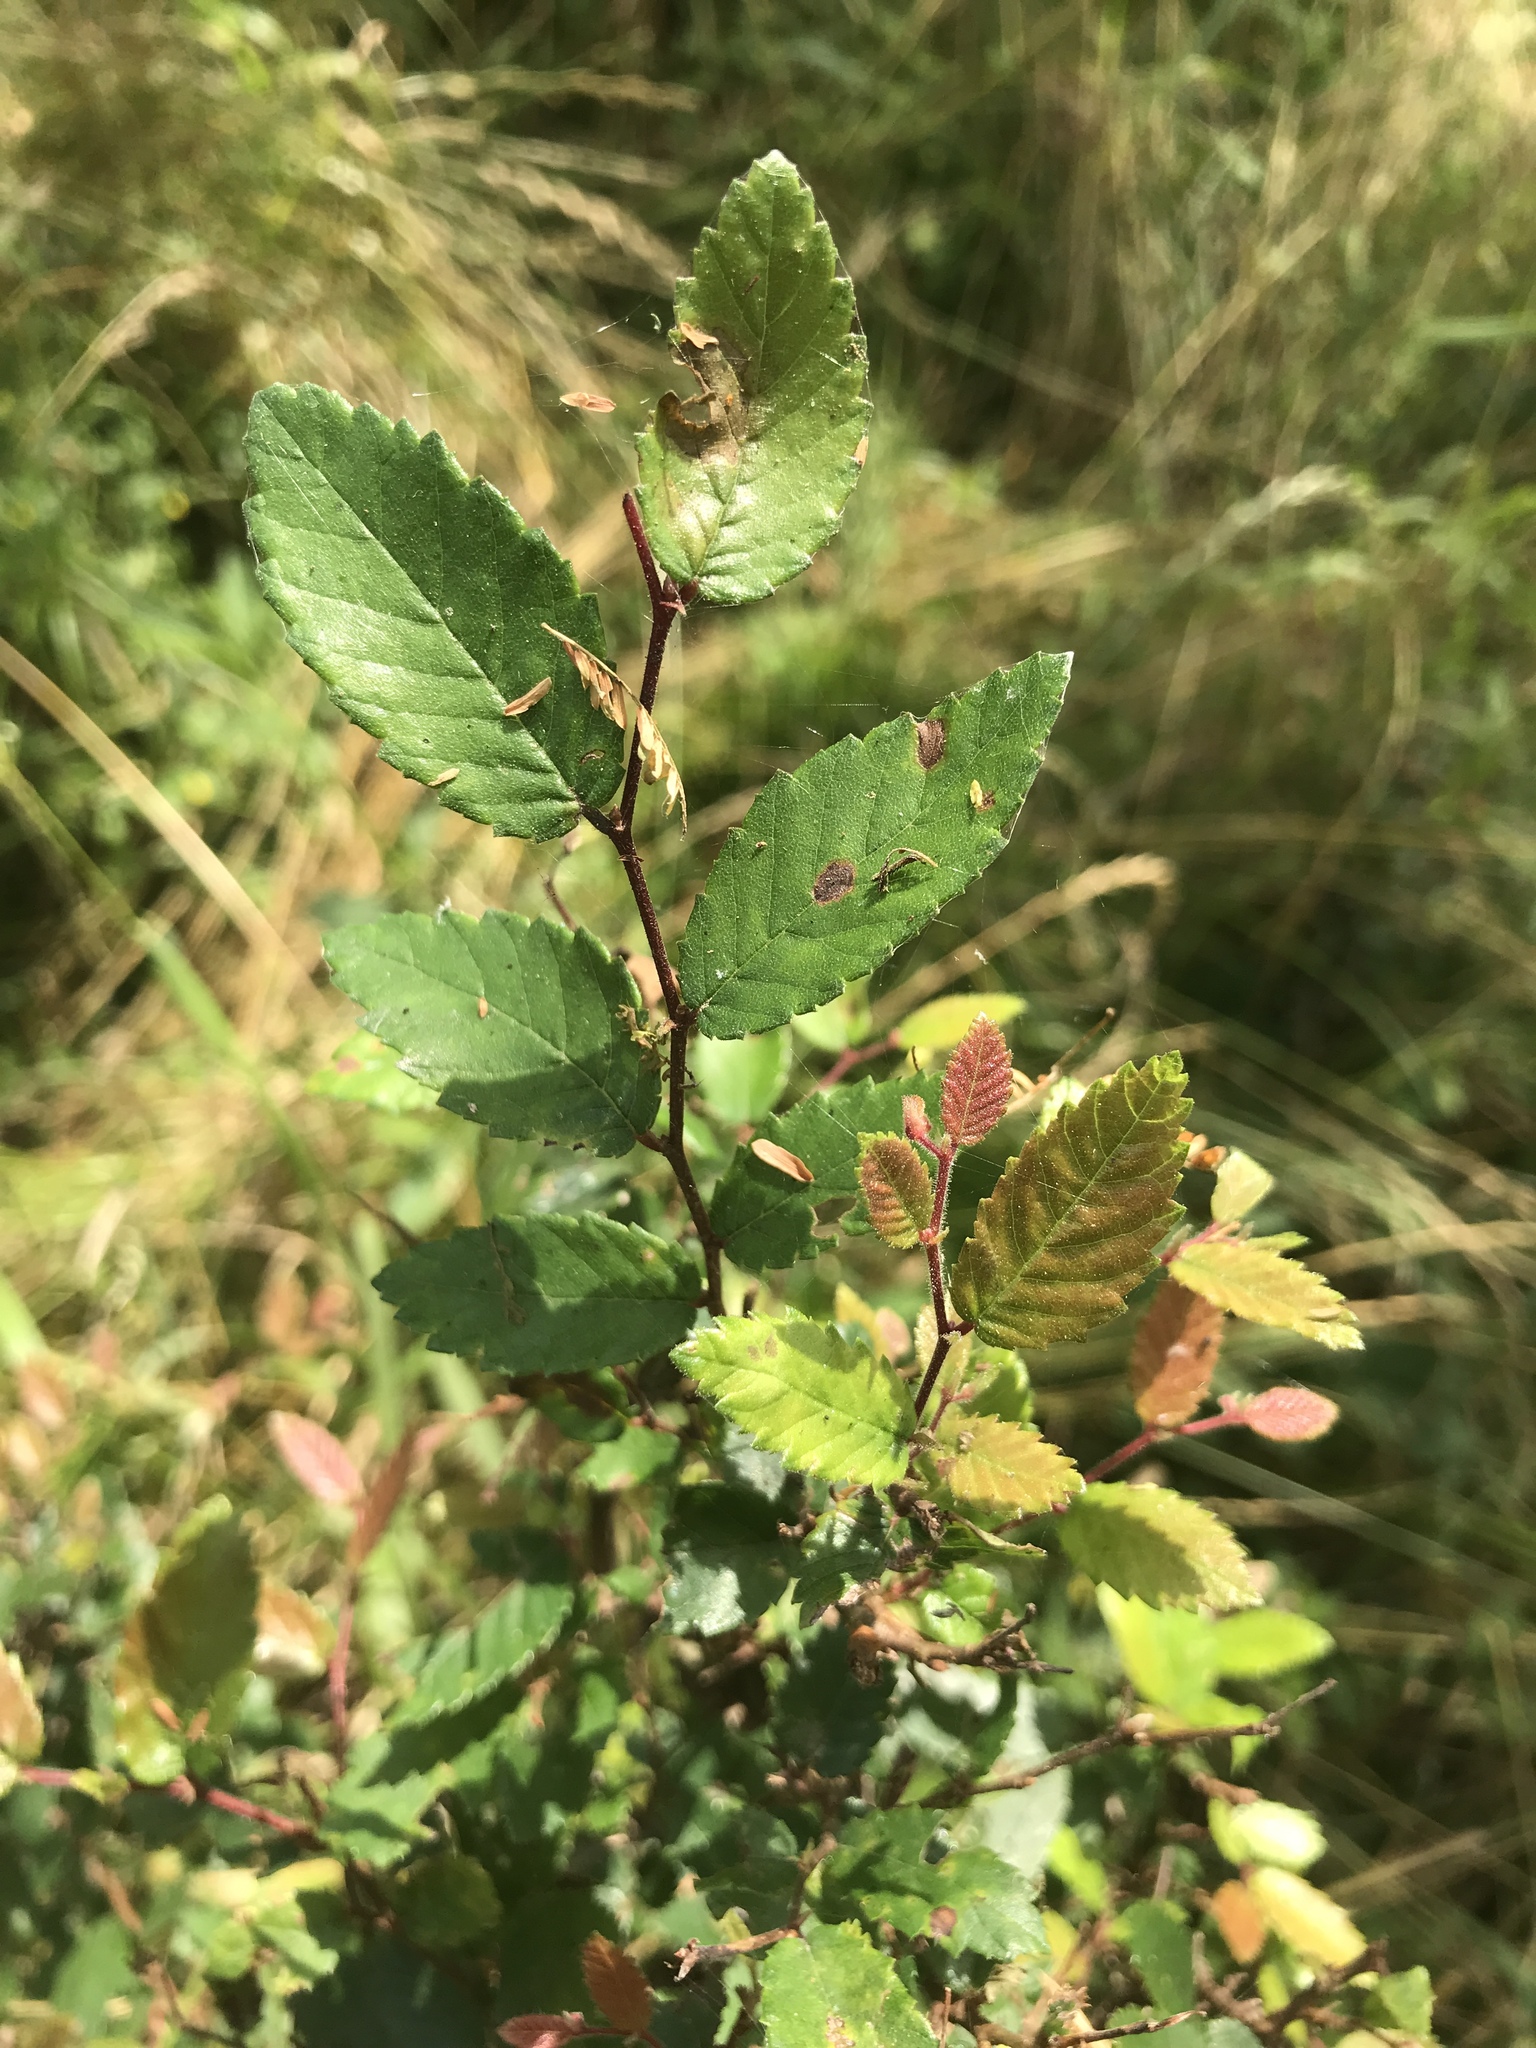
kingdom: Plantae
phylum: Tracheophyta
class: Magnoliopsida
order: Rosales
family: Ulmaceae
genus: Ulmus
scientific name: Ulmus crassifolia
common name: Basket elm
